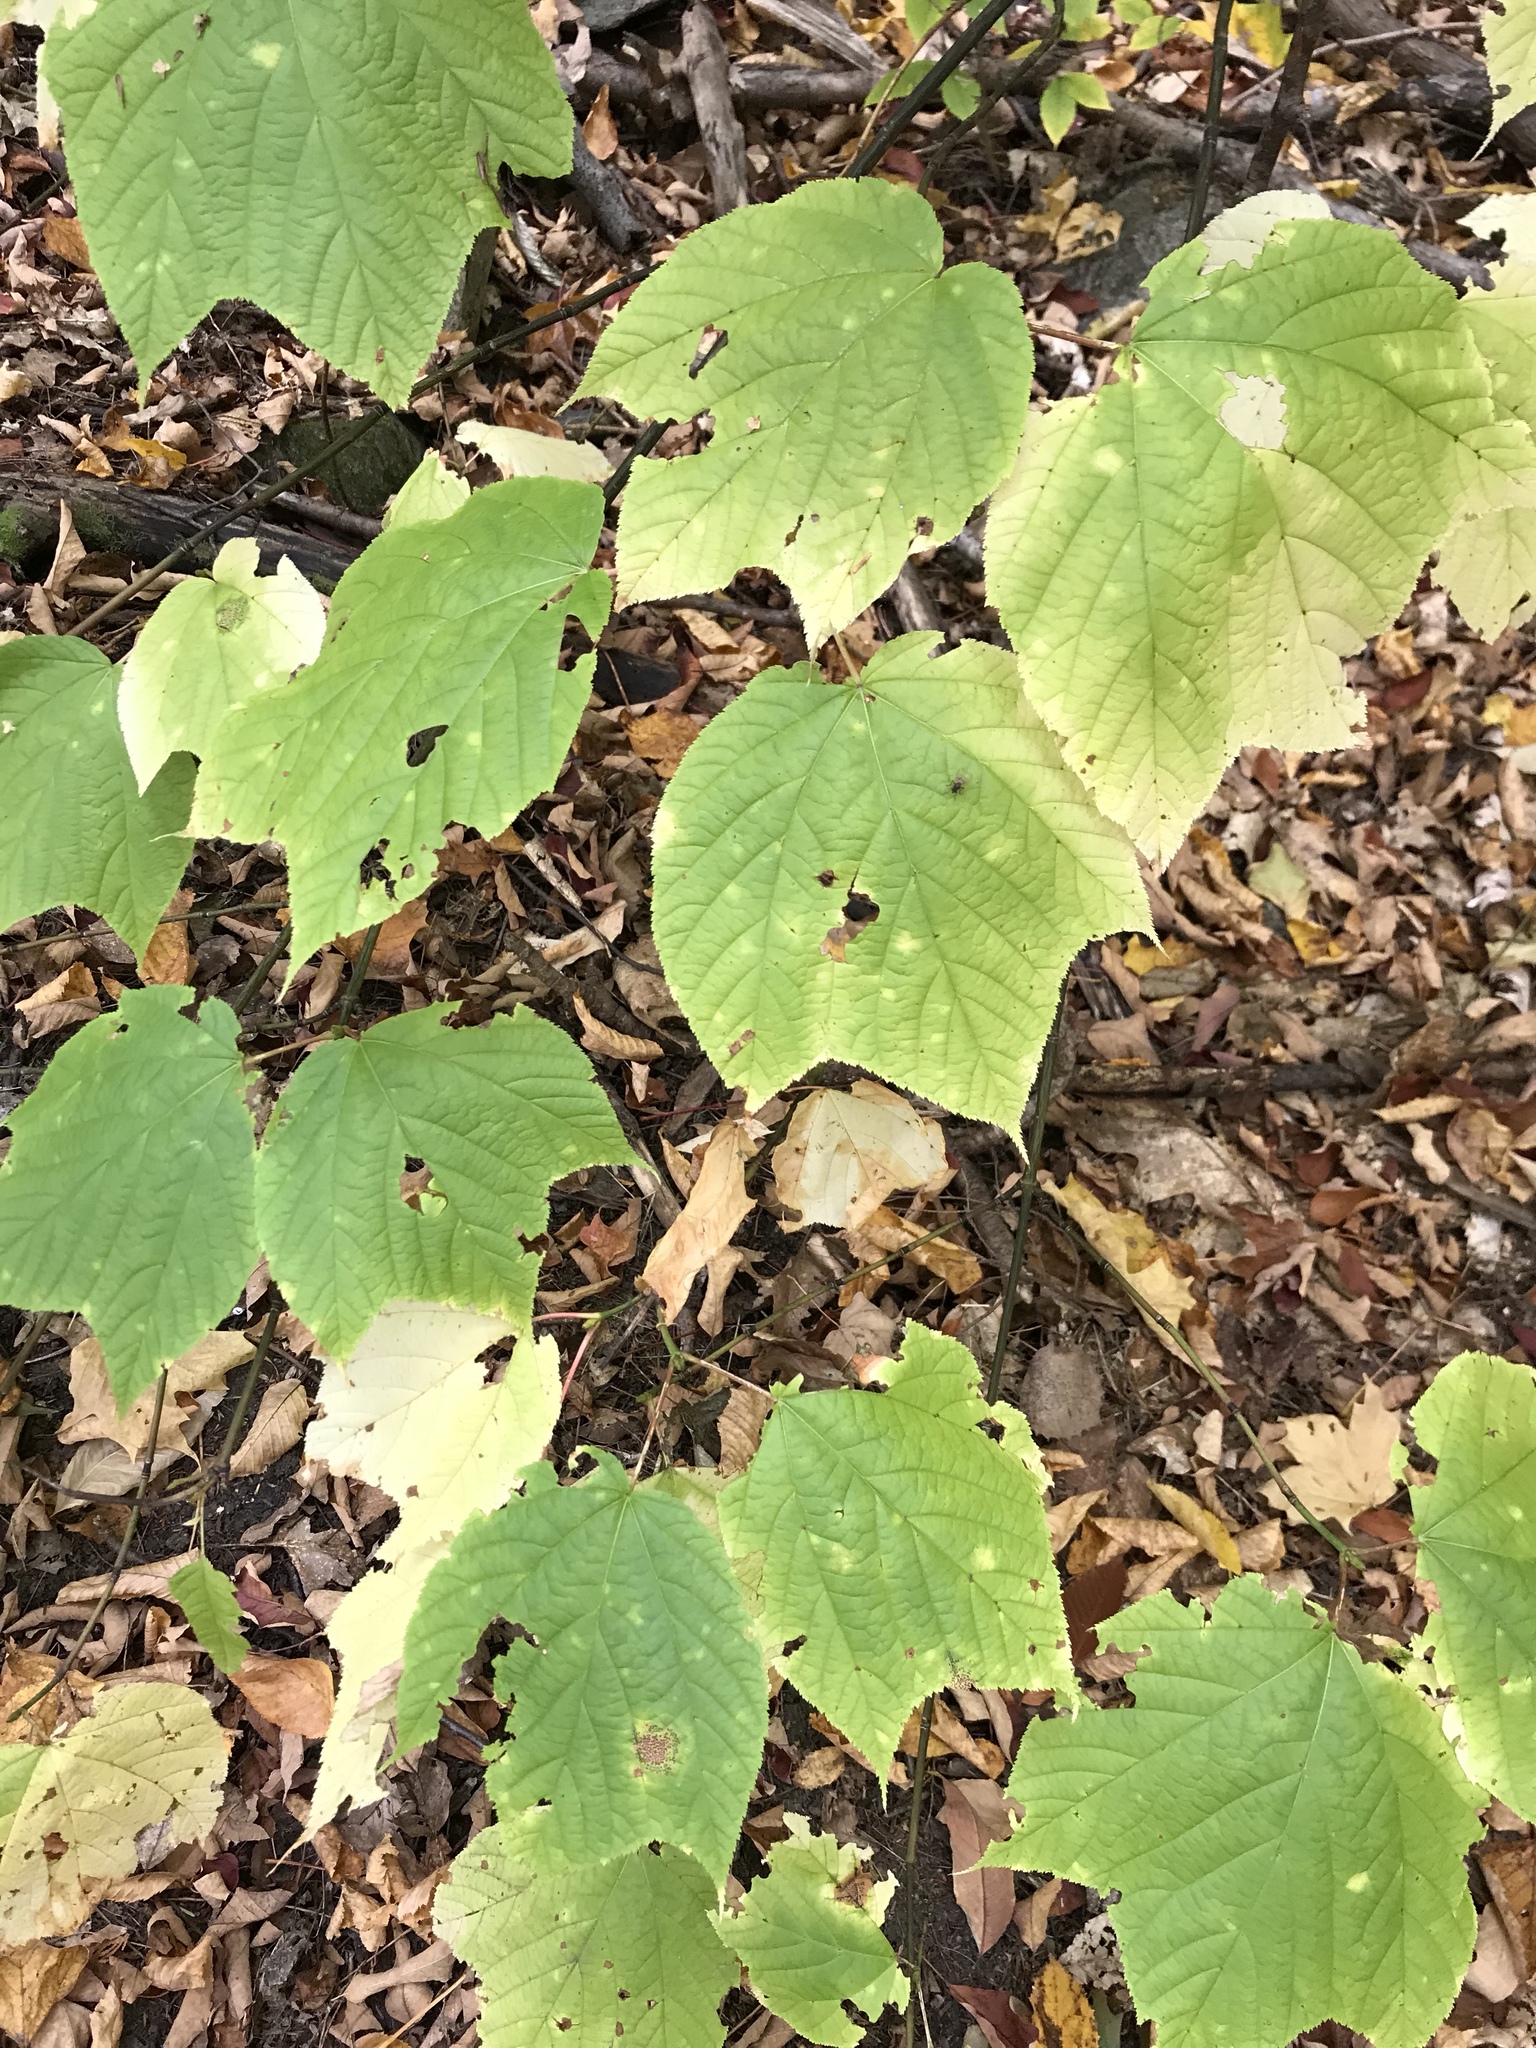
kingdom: Plantae
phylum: Tracheophyta
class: Magnoliopsida
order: Sapindales
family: Sapindaceae
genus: Acer
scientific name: Acer pensylvanicum
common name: Moosewood
